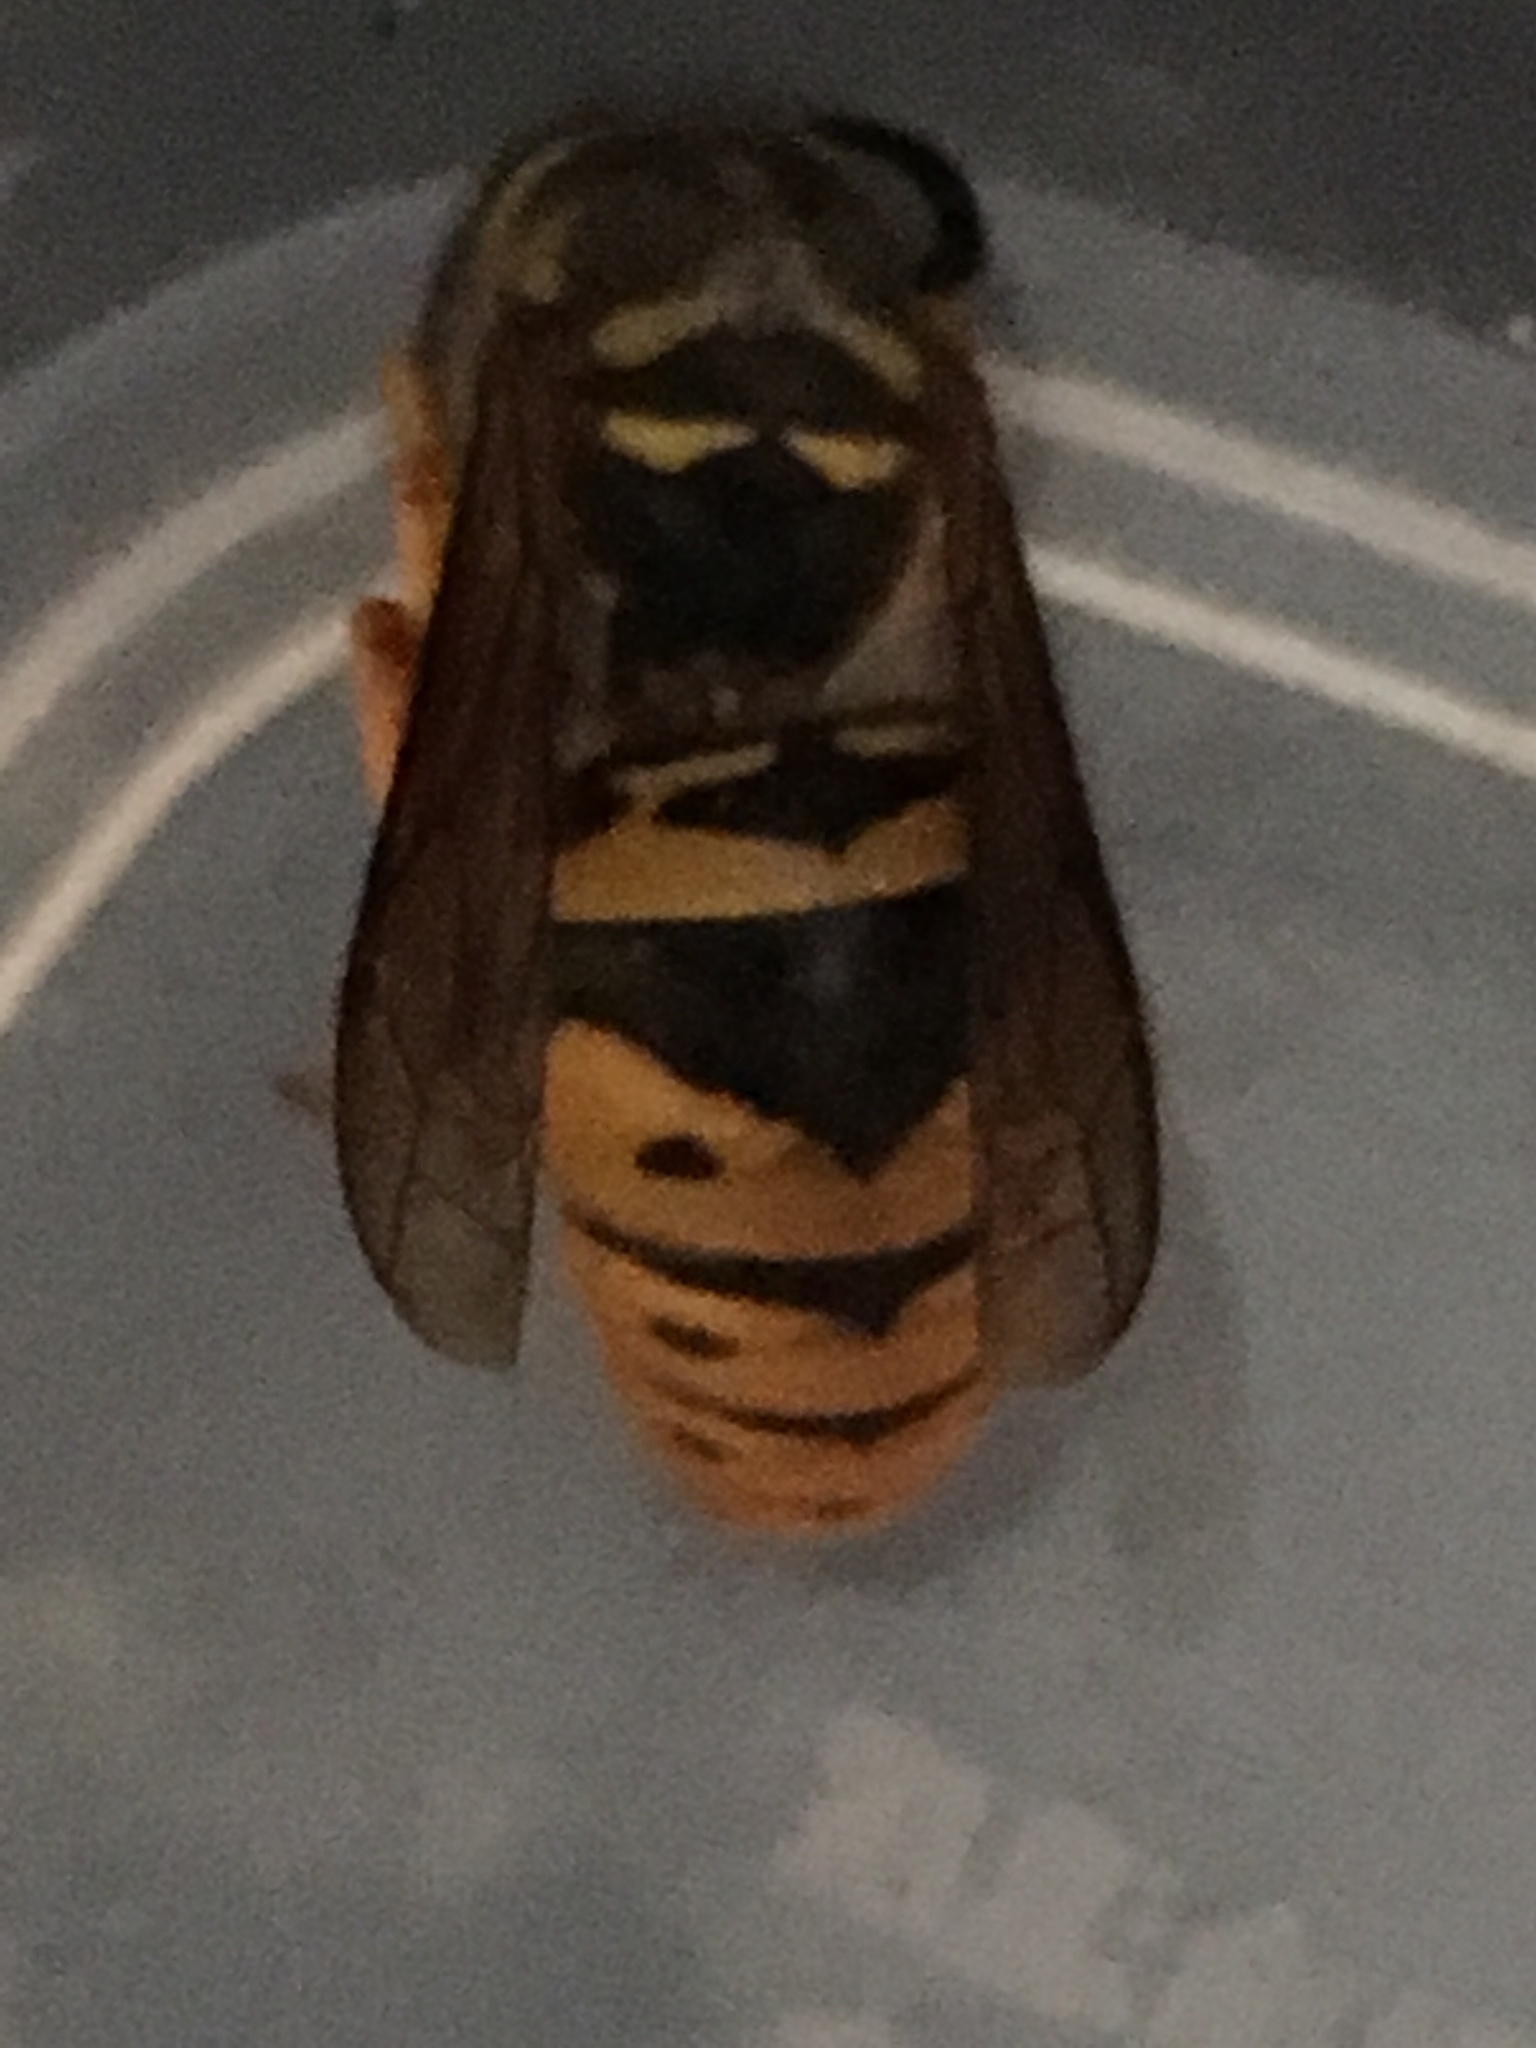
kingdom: Animalia
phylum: Arthropoda
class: Insecta
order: Hymenoptera
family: Vespidae
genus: Vespula
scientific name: Vespula maculifrons
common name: Eastern yellowjacket
